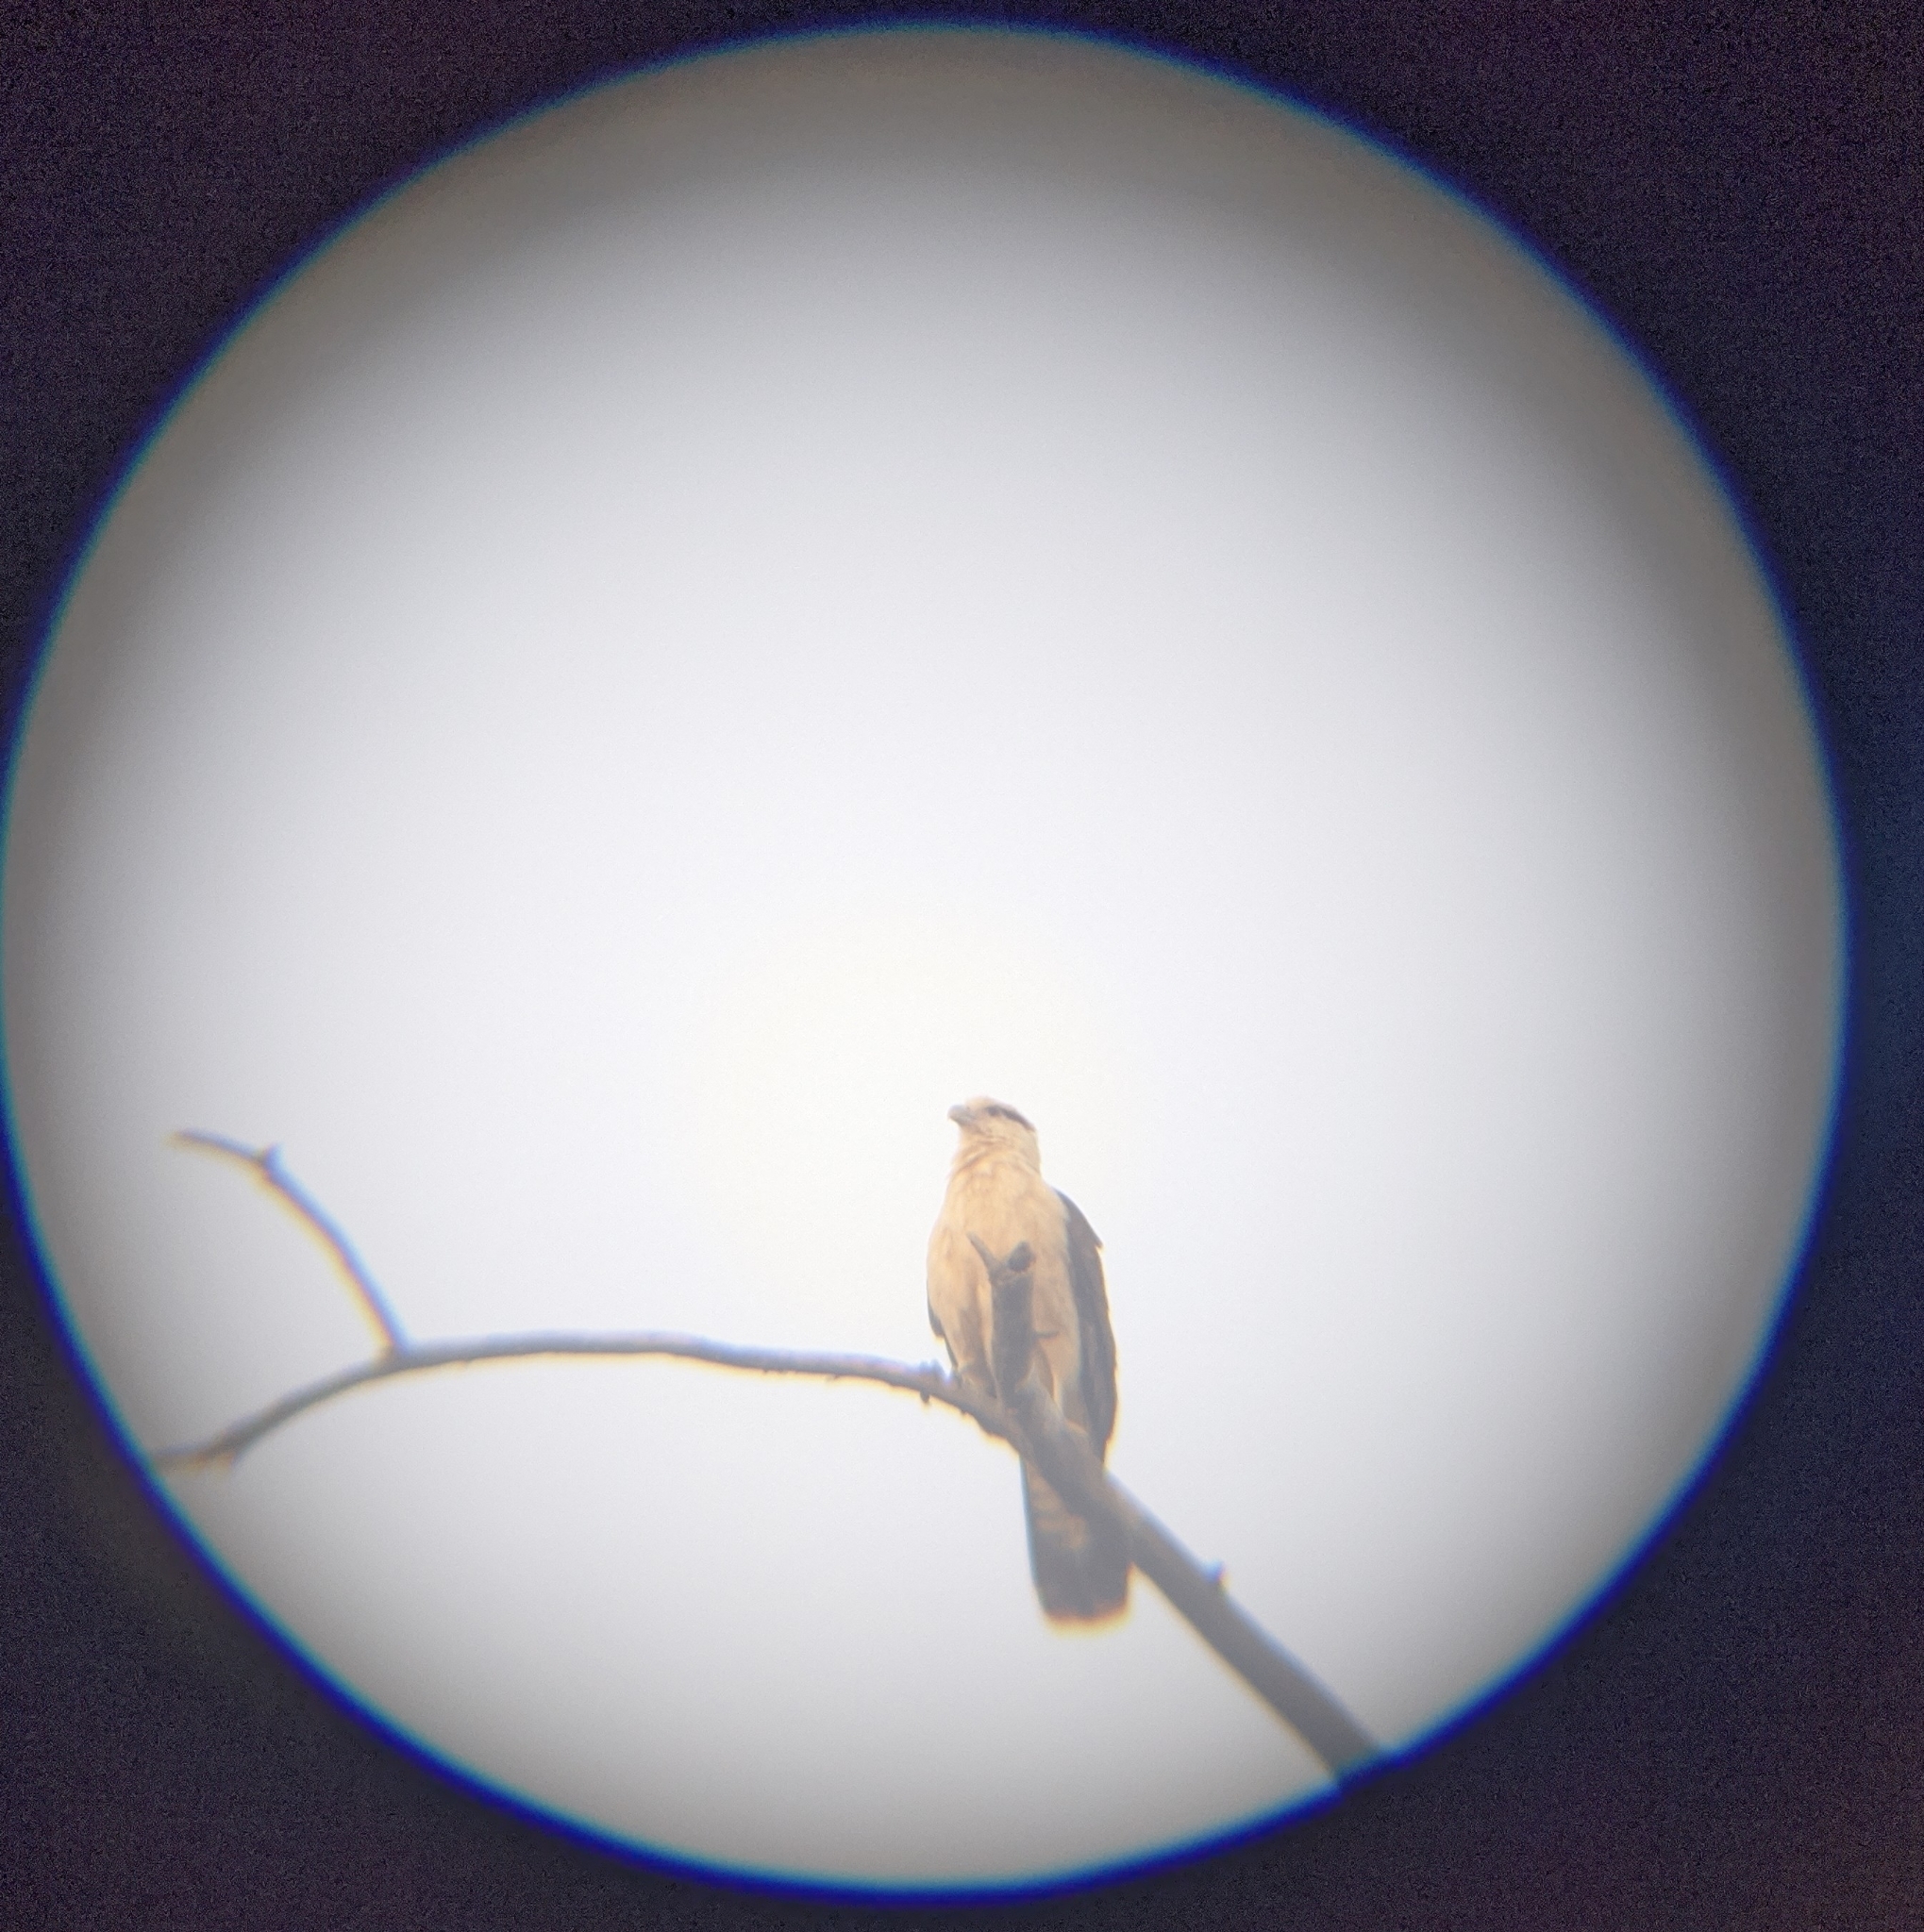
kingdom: Animalia
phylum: Chordata
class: Aves
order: Falconiformes
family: Falconidae
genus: Daptrius
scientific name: Daptrius
